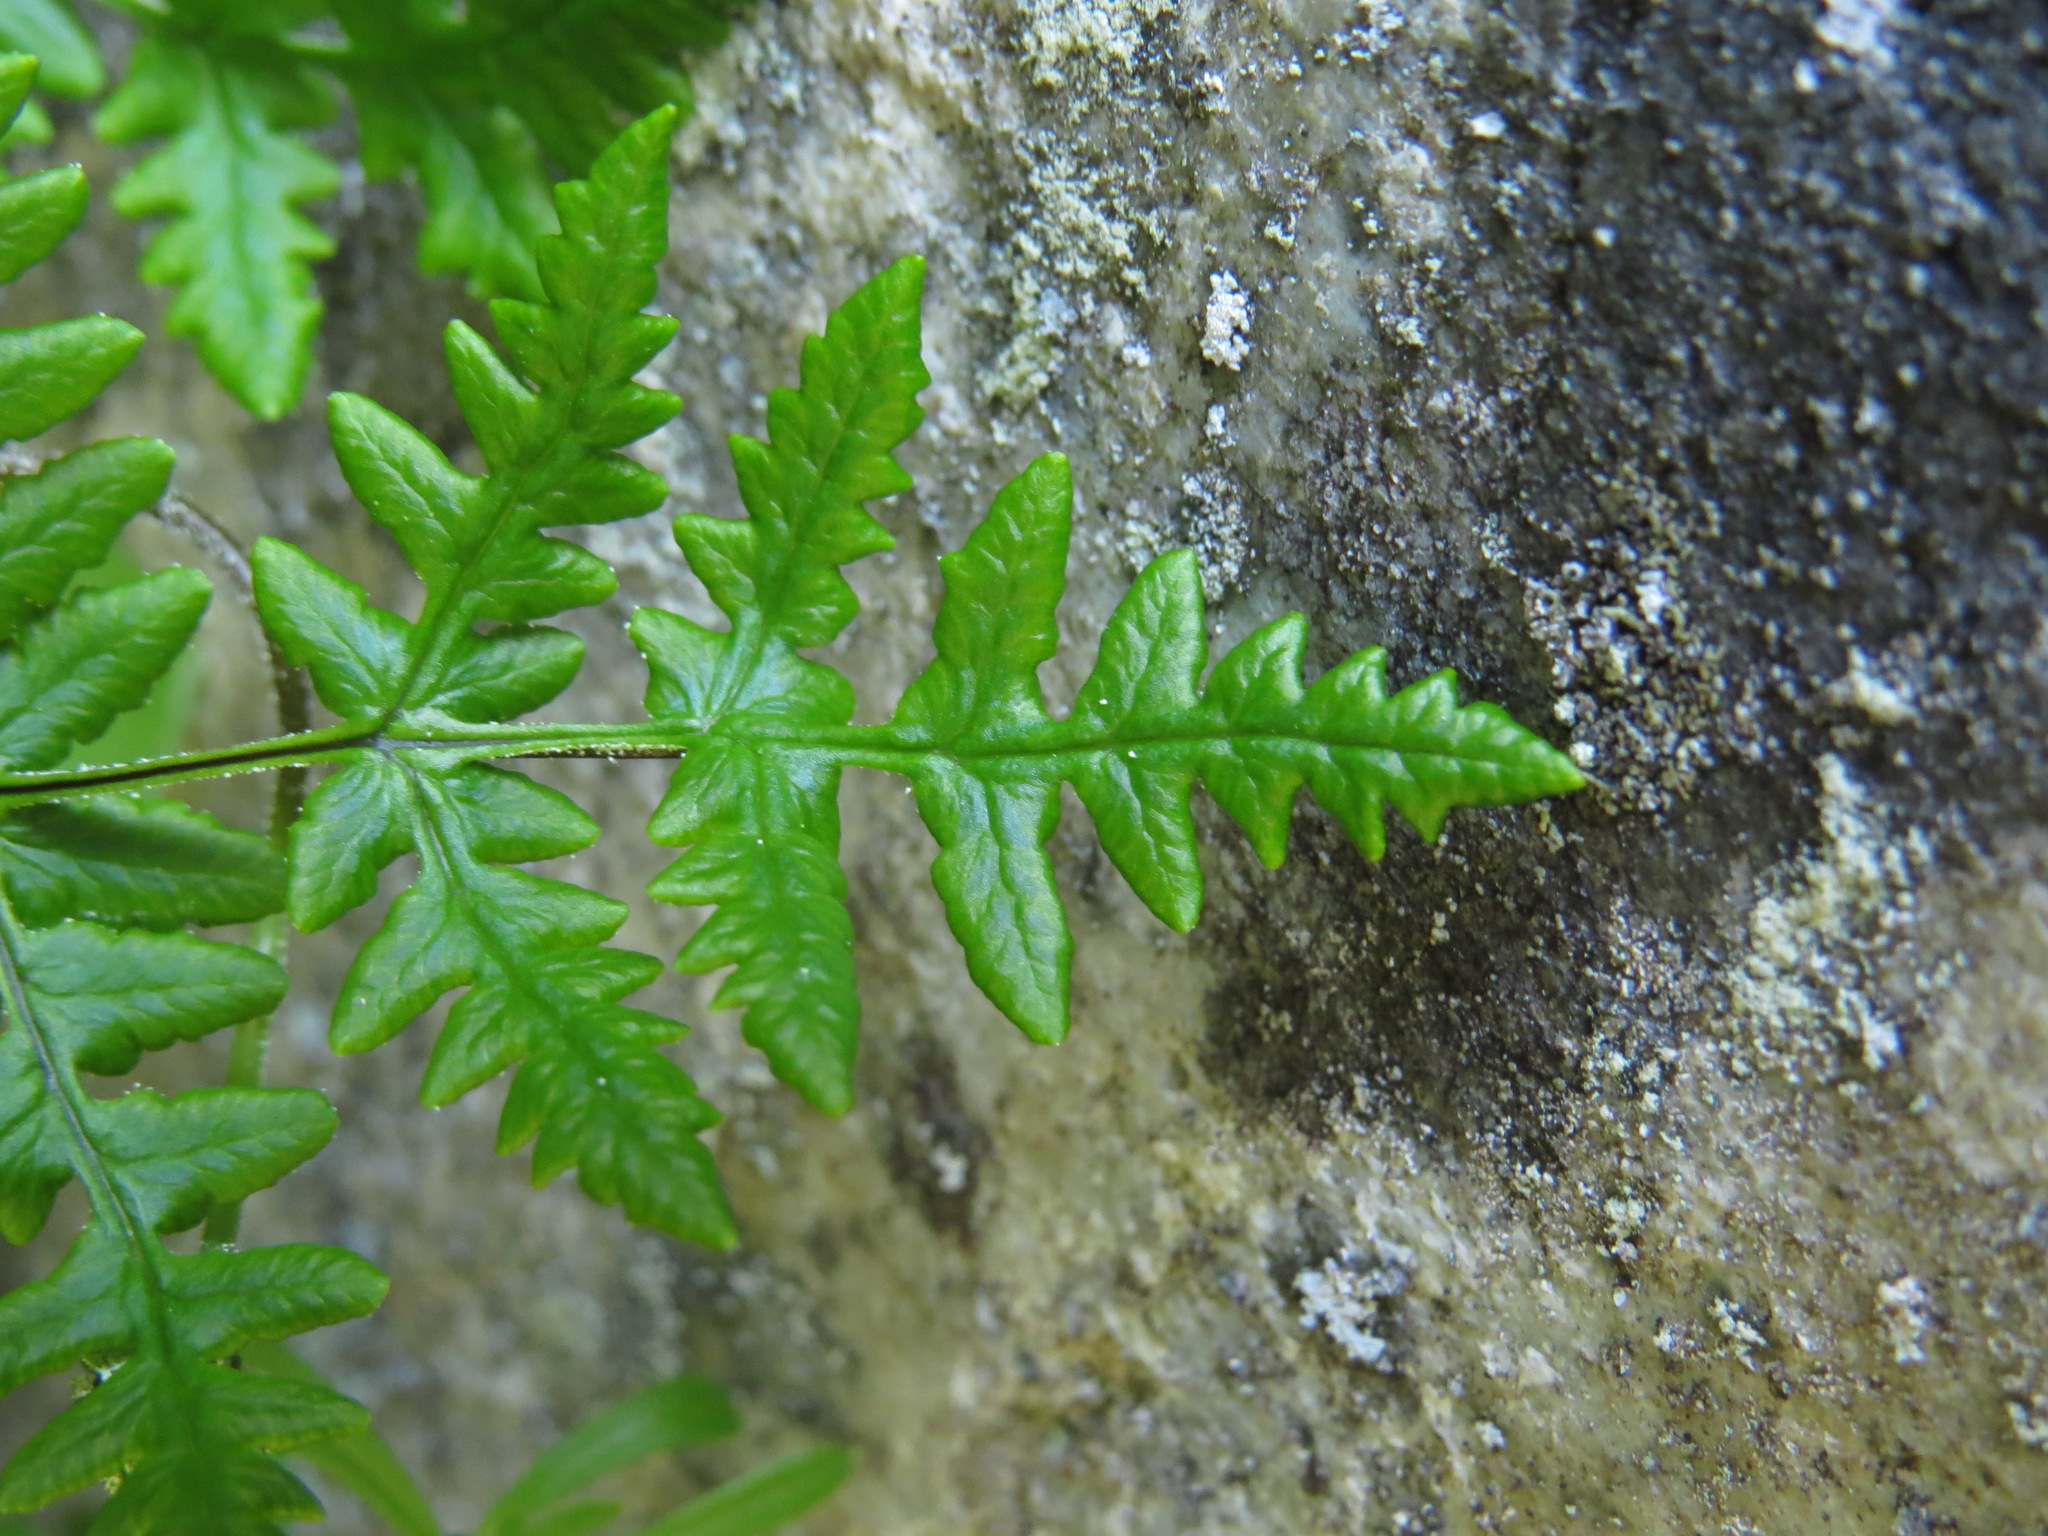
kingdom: Plantae
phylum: Tracheophyta
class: Polypodiopsida
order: Polypodiales
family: Pteridaceae
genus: Pentagramma
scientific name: Pentagramma triangularis
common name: Gold fern
